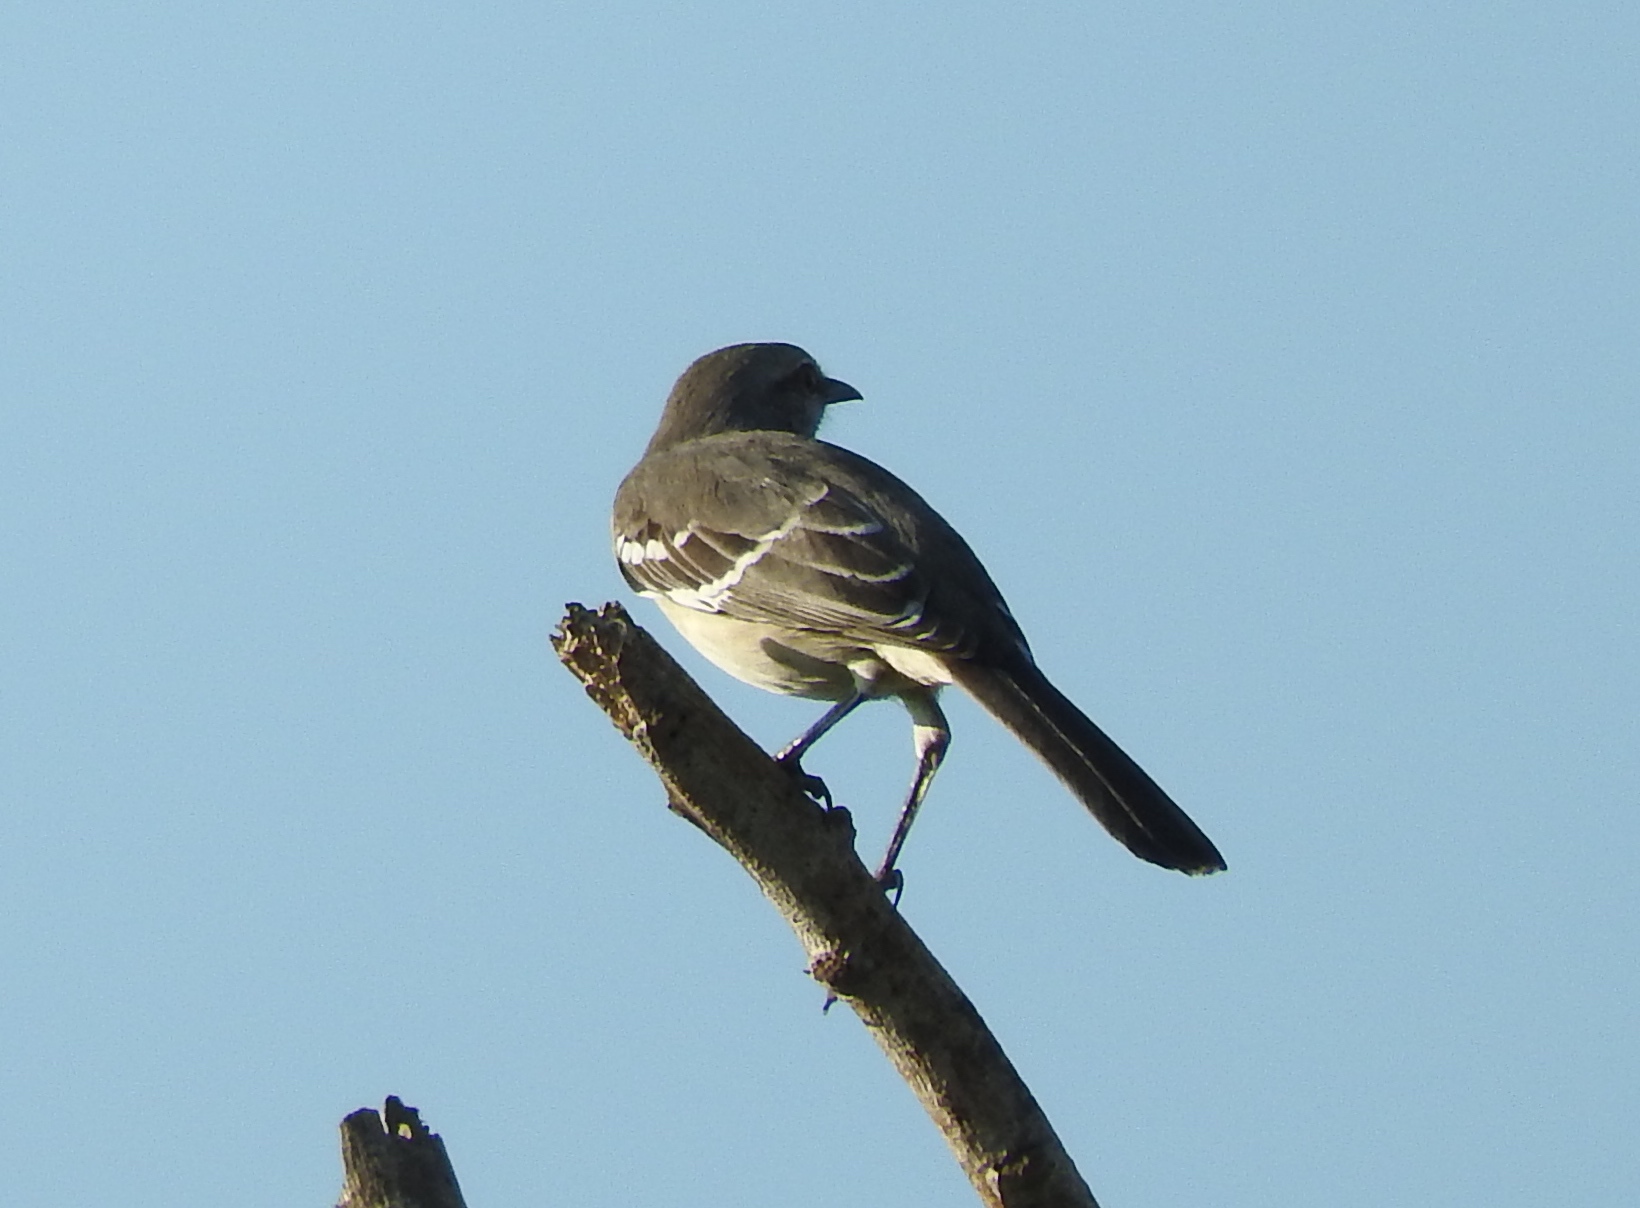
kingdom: Animalia
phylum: Chordata
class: Aves
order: Passeriformes
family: Mimidae
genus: Mimus
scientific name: Mimus polyglottos
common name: Northern mockingbird
